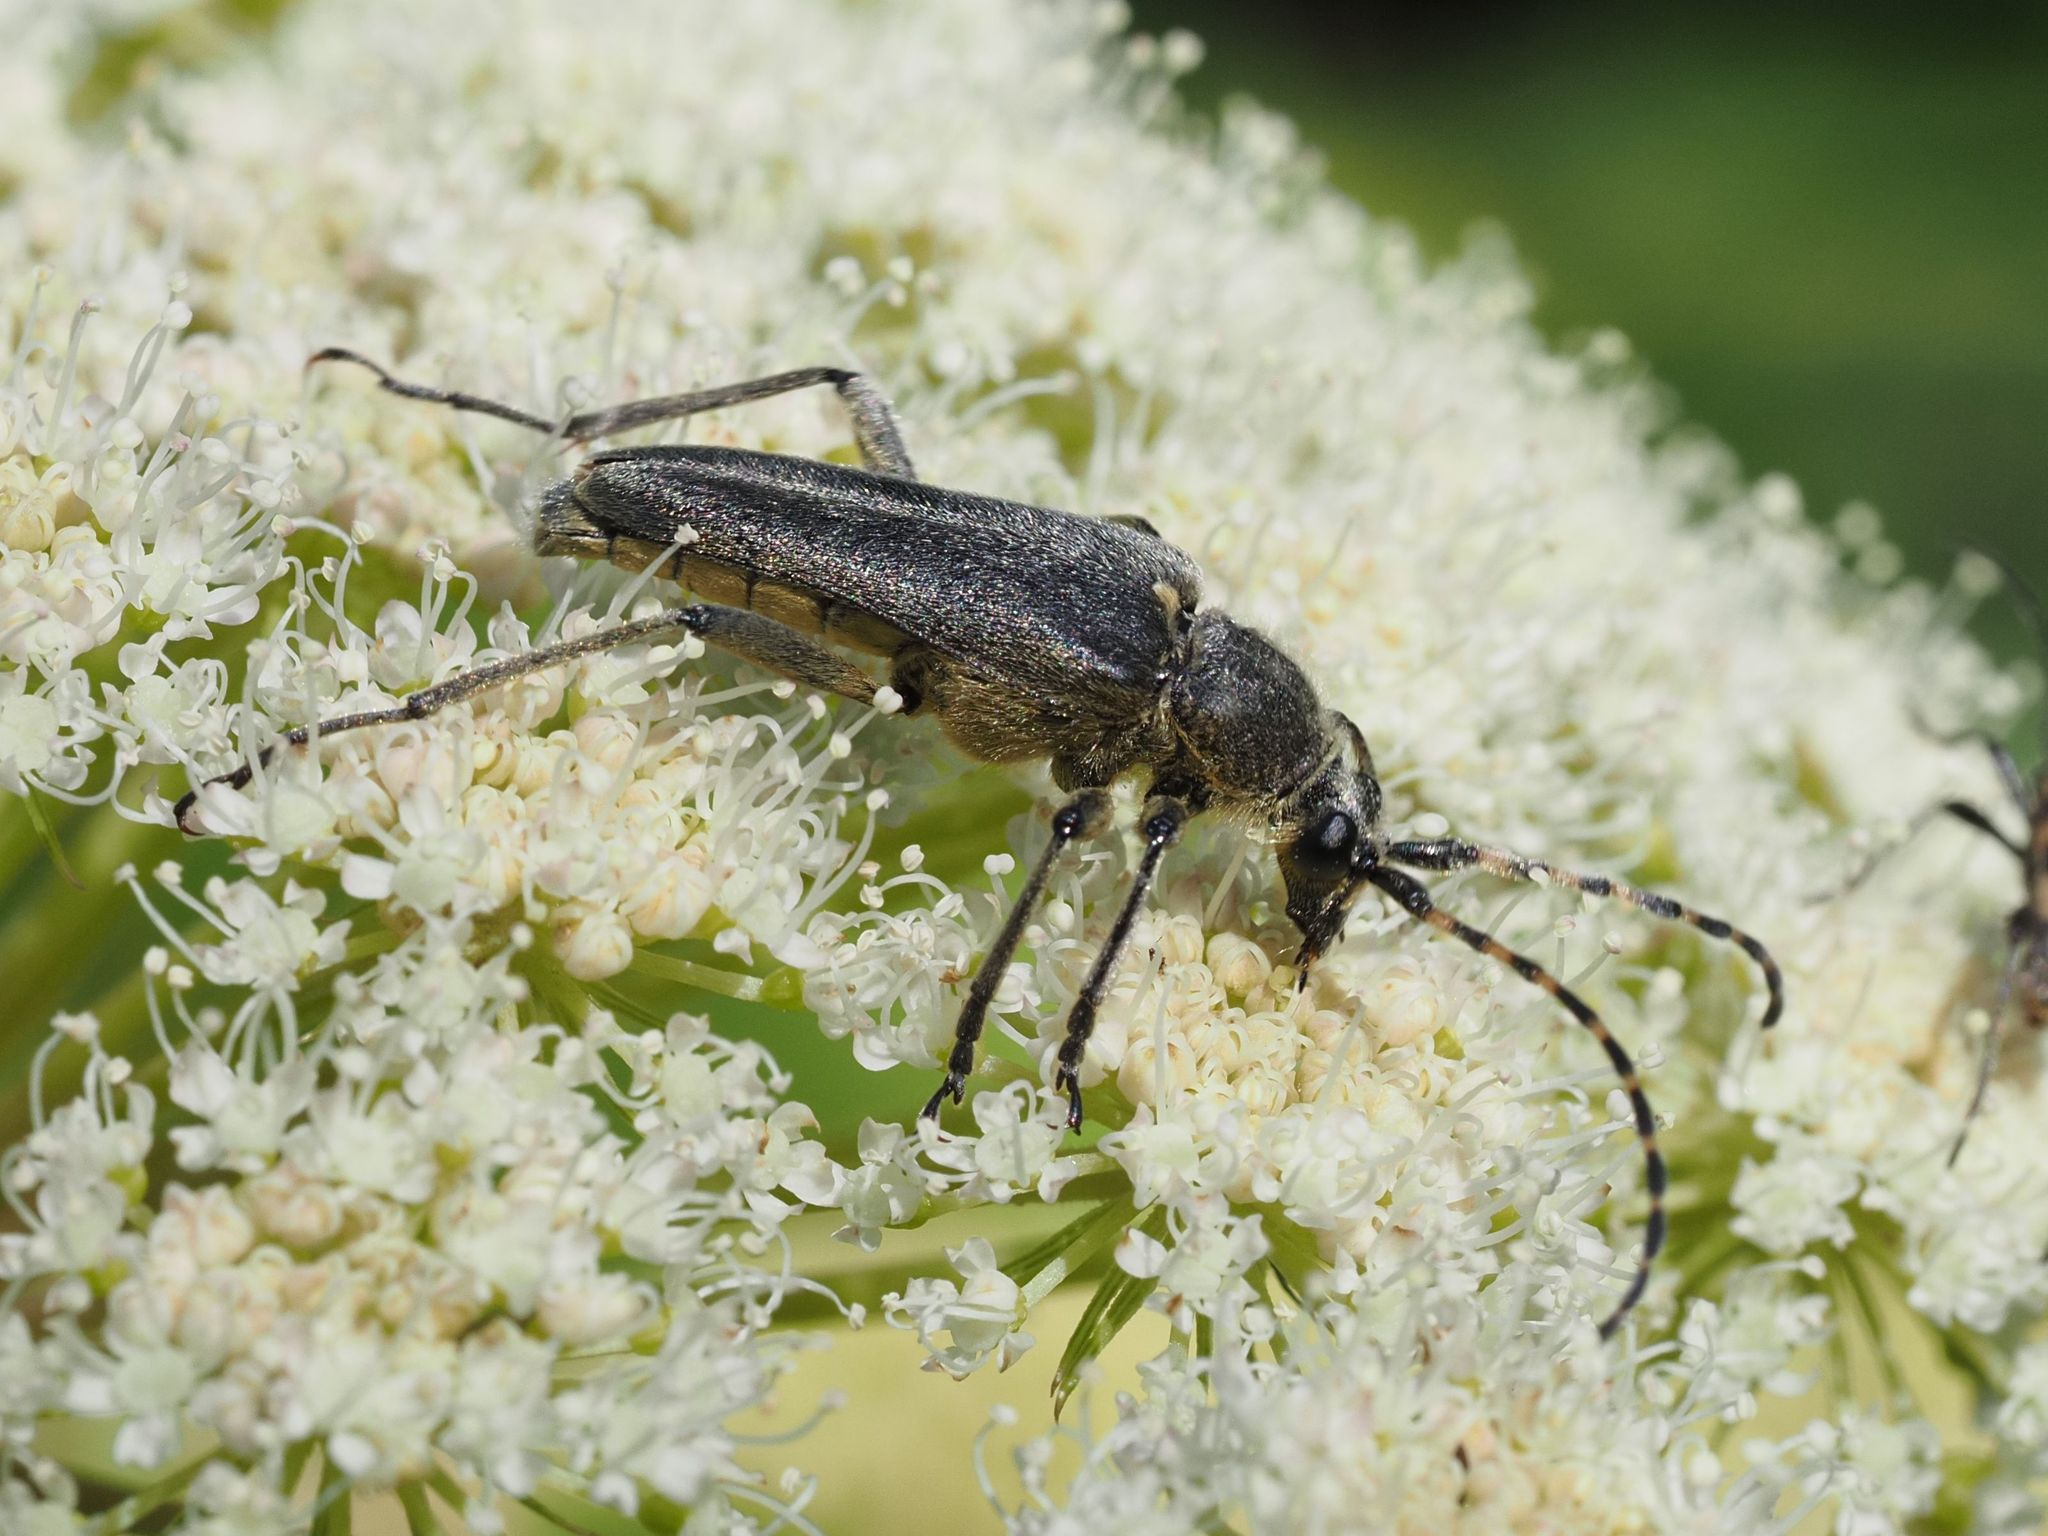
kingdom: Animalia
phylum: Arthropoda
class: Insecta
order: Coleoptera
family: Cerambycidae
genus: Lepturobosca
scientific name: Lepturobosca virens
